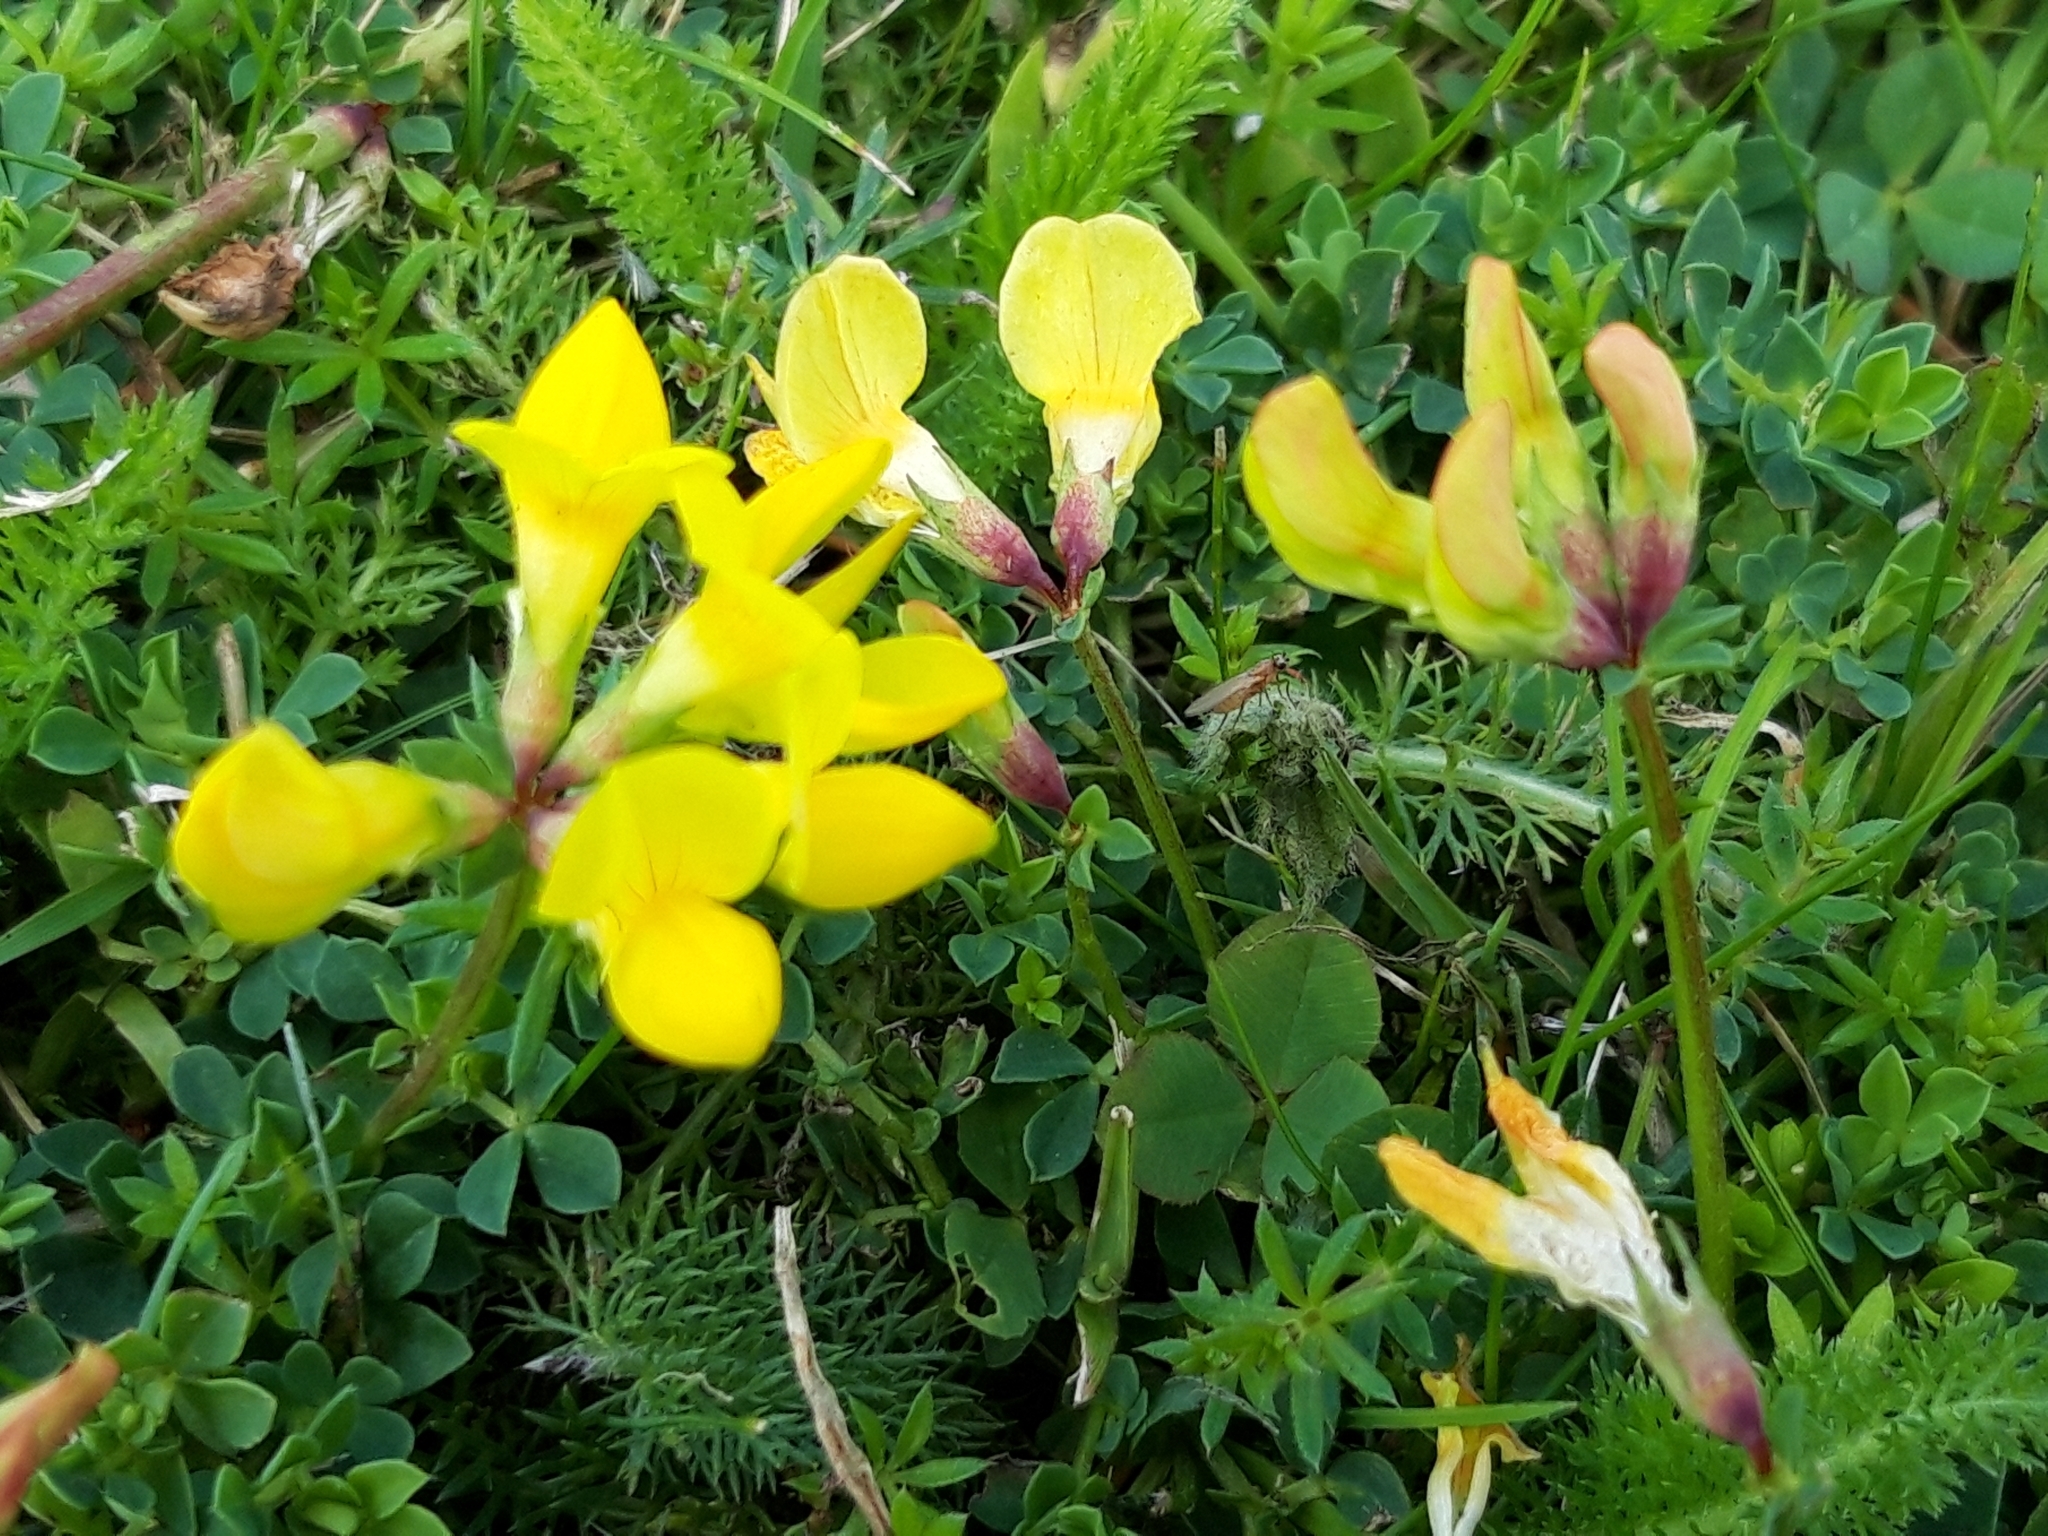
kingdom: Plantae
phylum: Tracheophyta
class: Magnoliopsida
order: Fabales
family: Fabaceae
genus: Lotus
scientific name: Lotus corniculatus
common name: Common bird's-foot-trefoil
